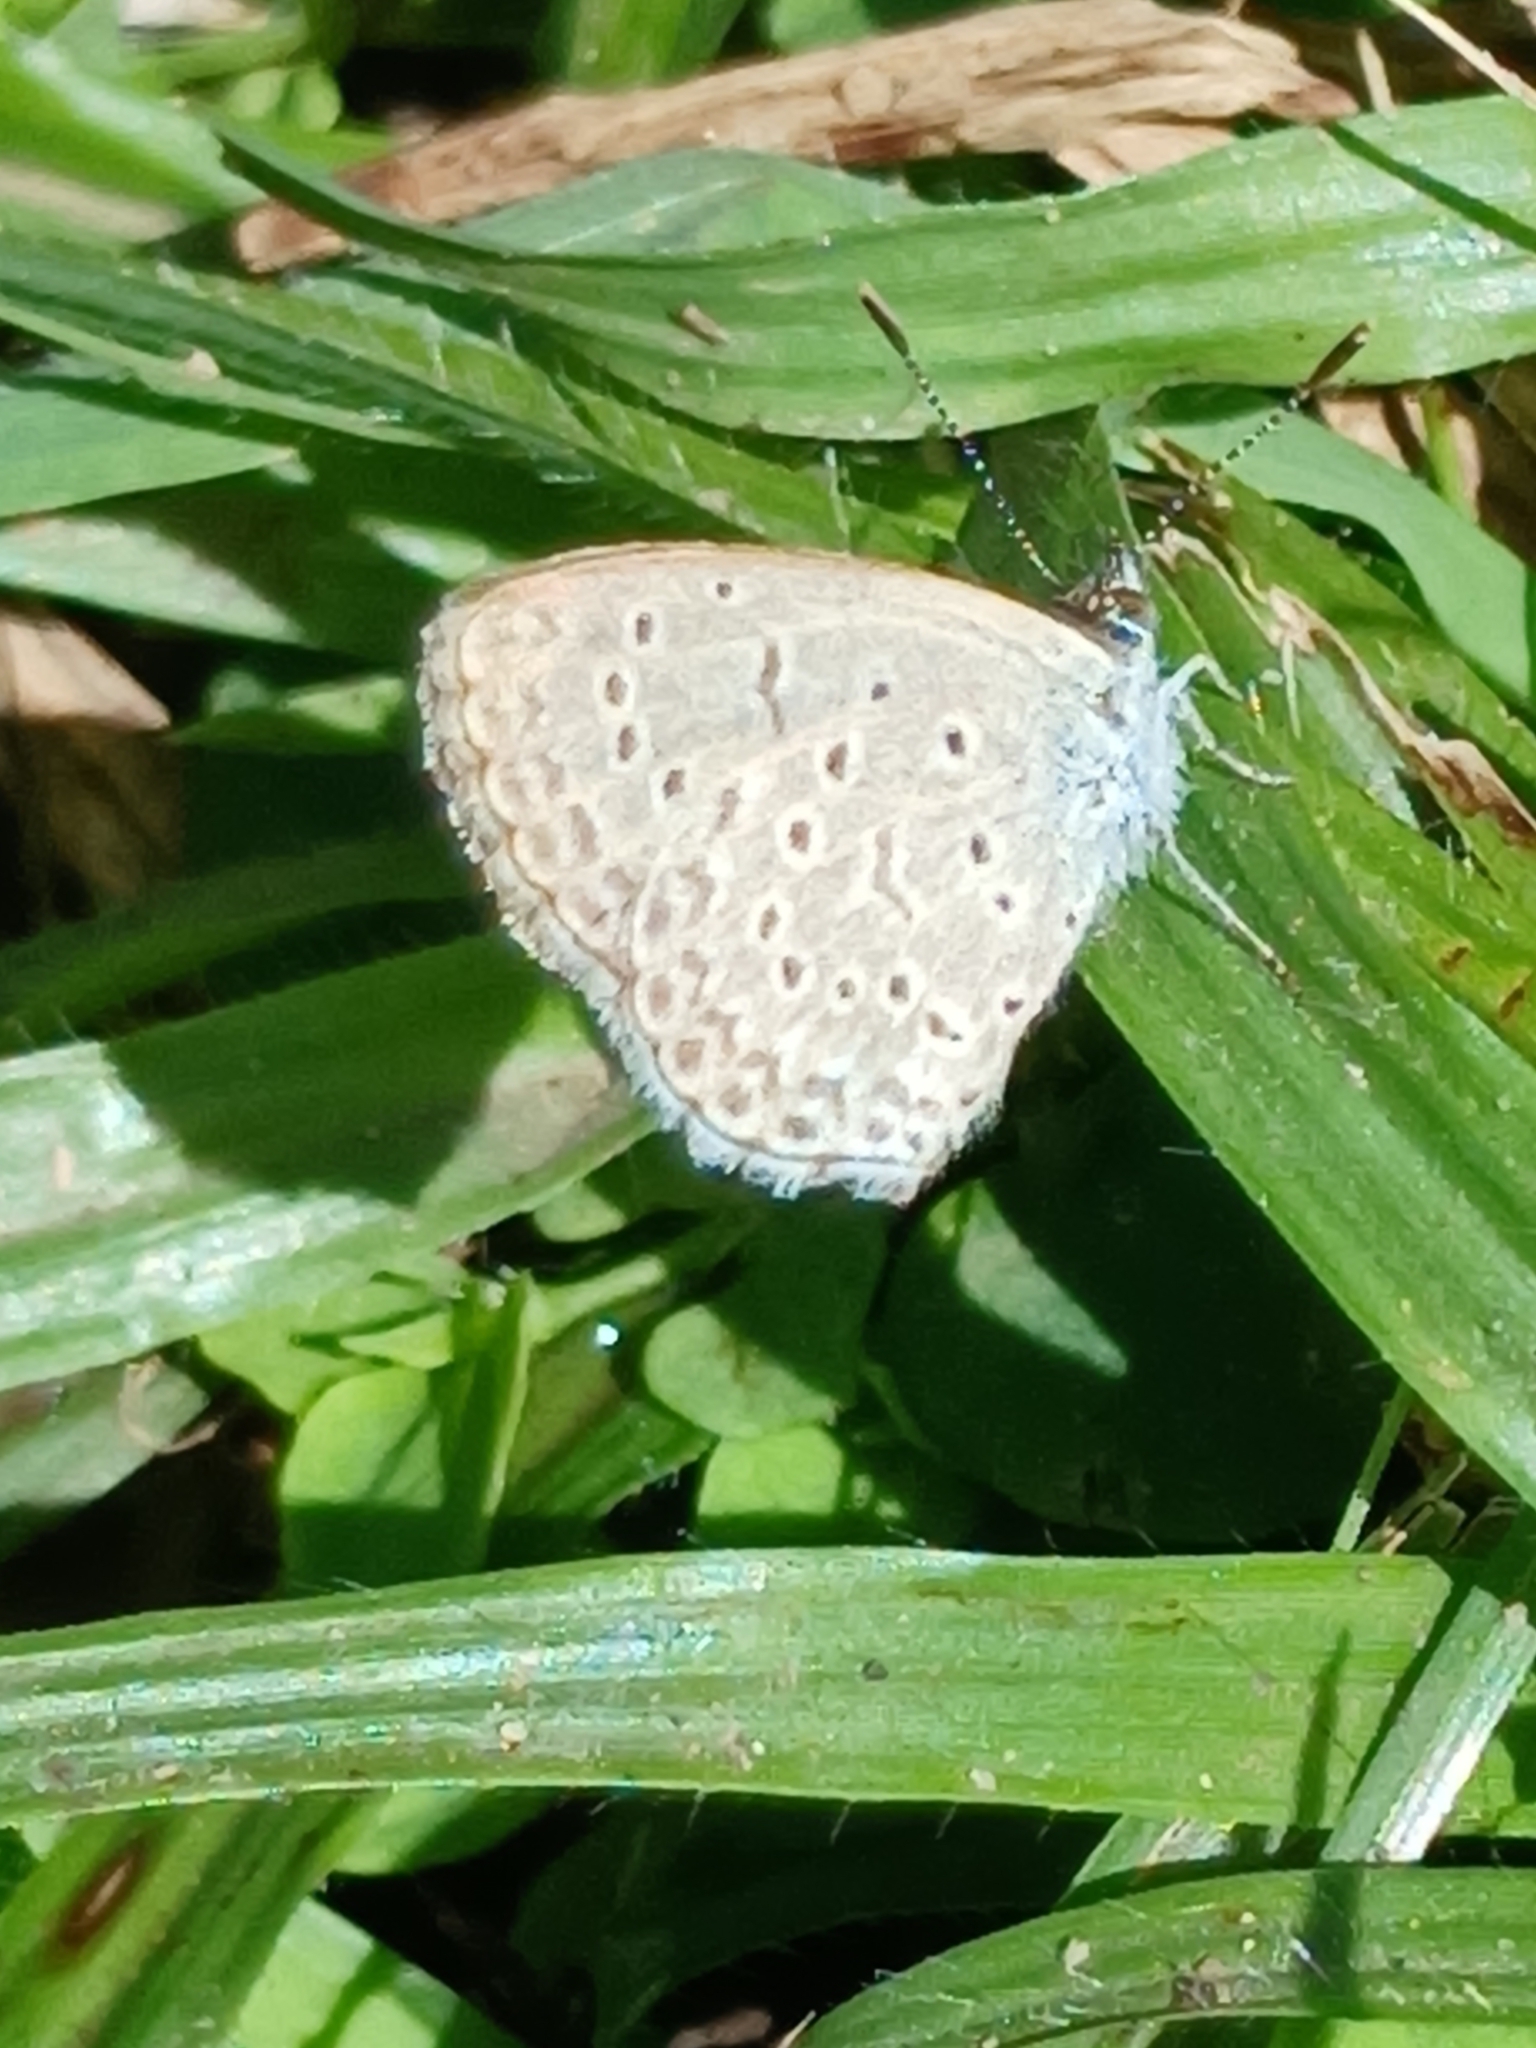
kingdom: Animalia
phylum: Arthropoda
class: Insecta
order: Lepidoptera
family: Lycaenidae
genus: Zizeeria
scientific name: Zizeeria knysna
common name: African grass blue
